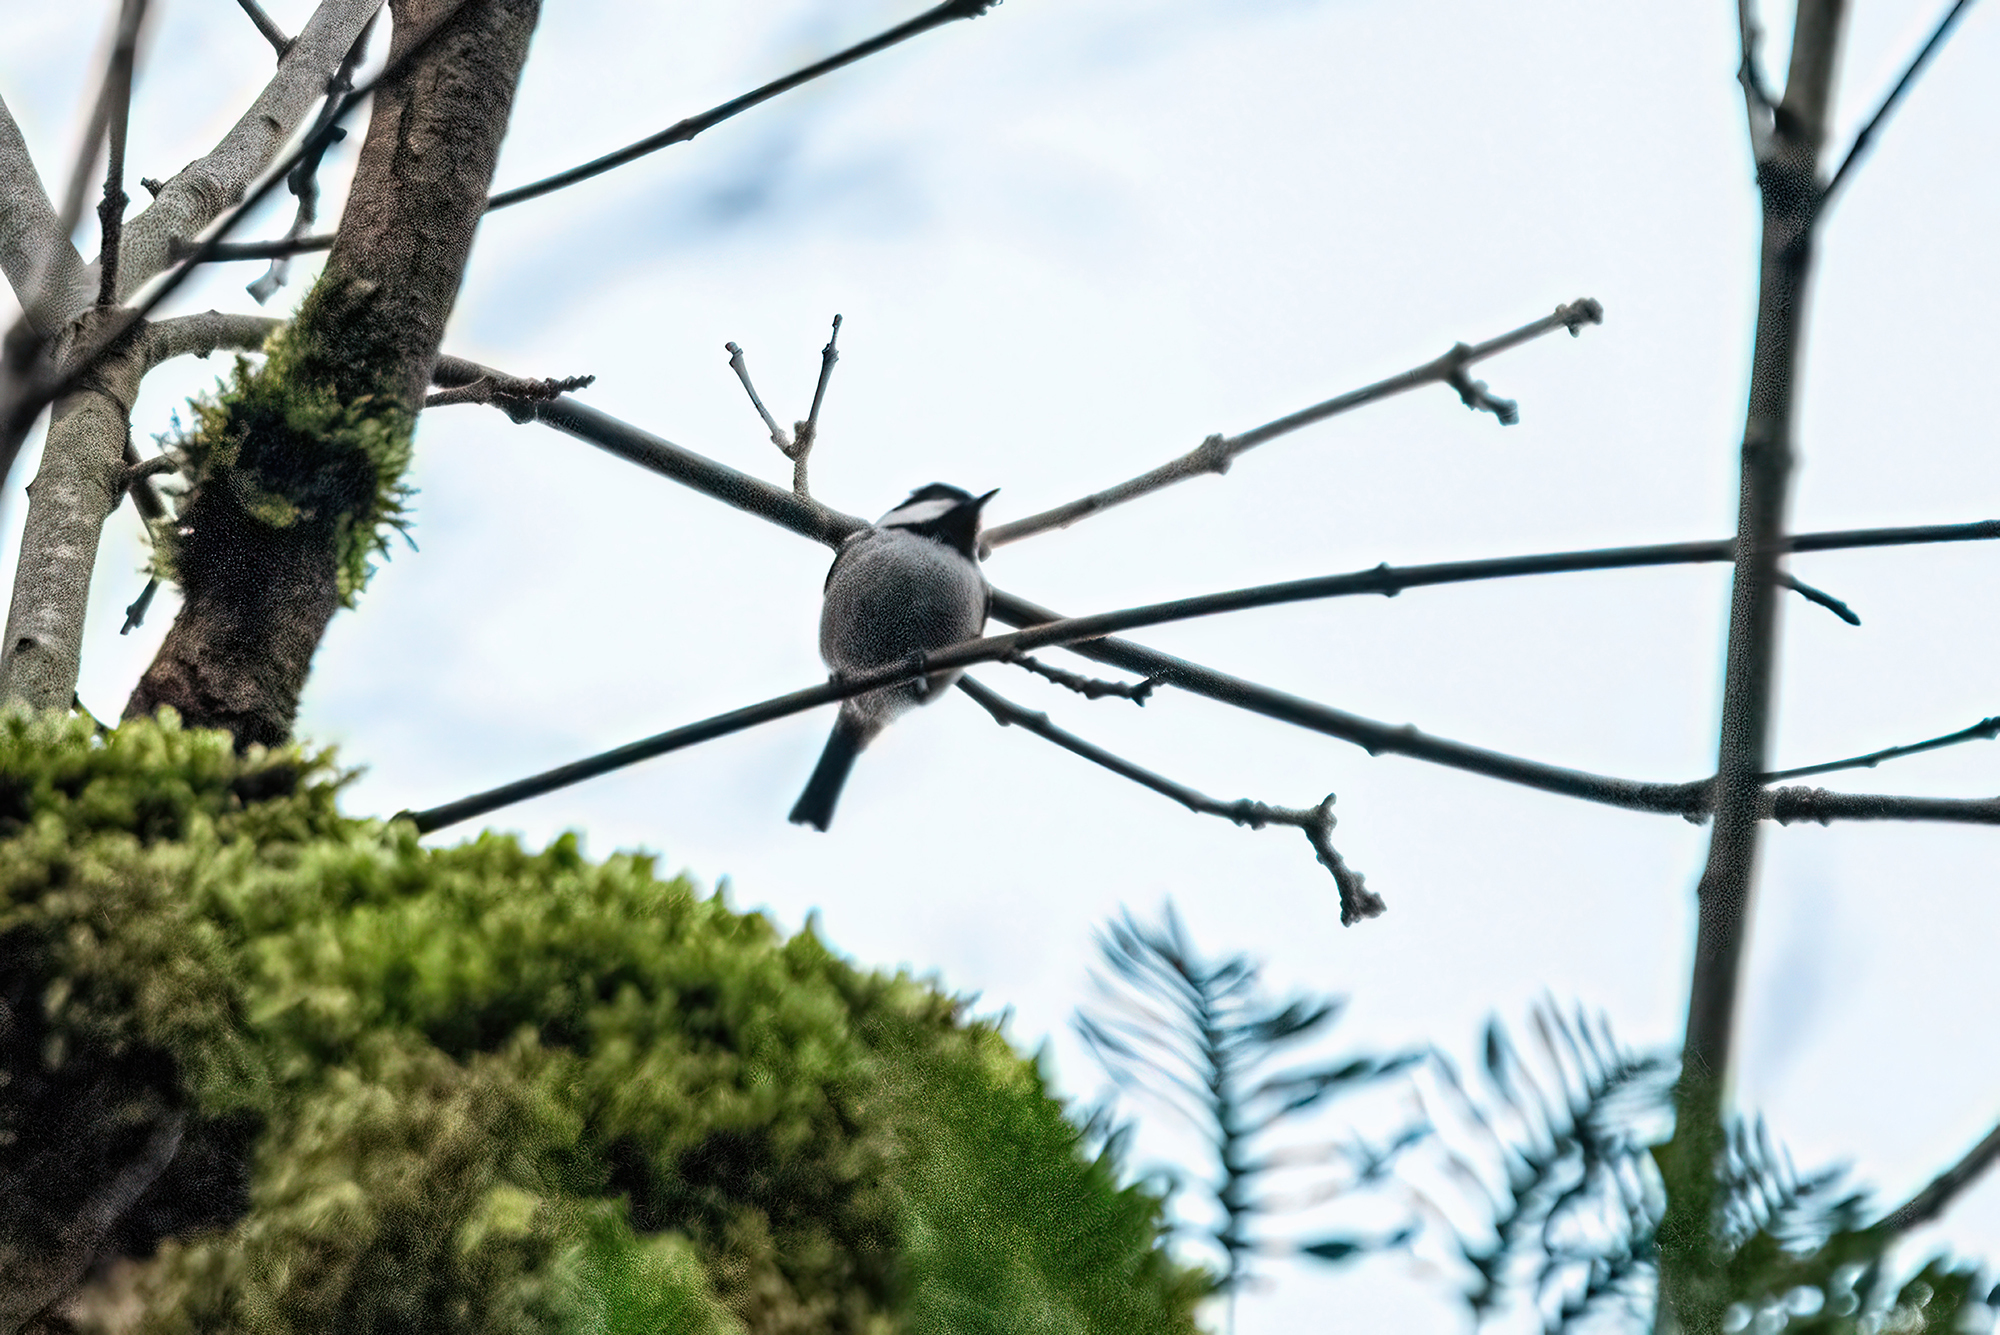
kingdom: Animalia
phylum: Chordata
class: Aves
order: Passeriformes
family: Paridae
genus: Periparus
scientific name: Periparus ater
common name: Coal tit
